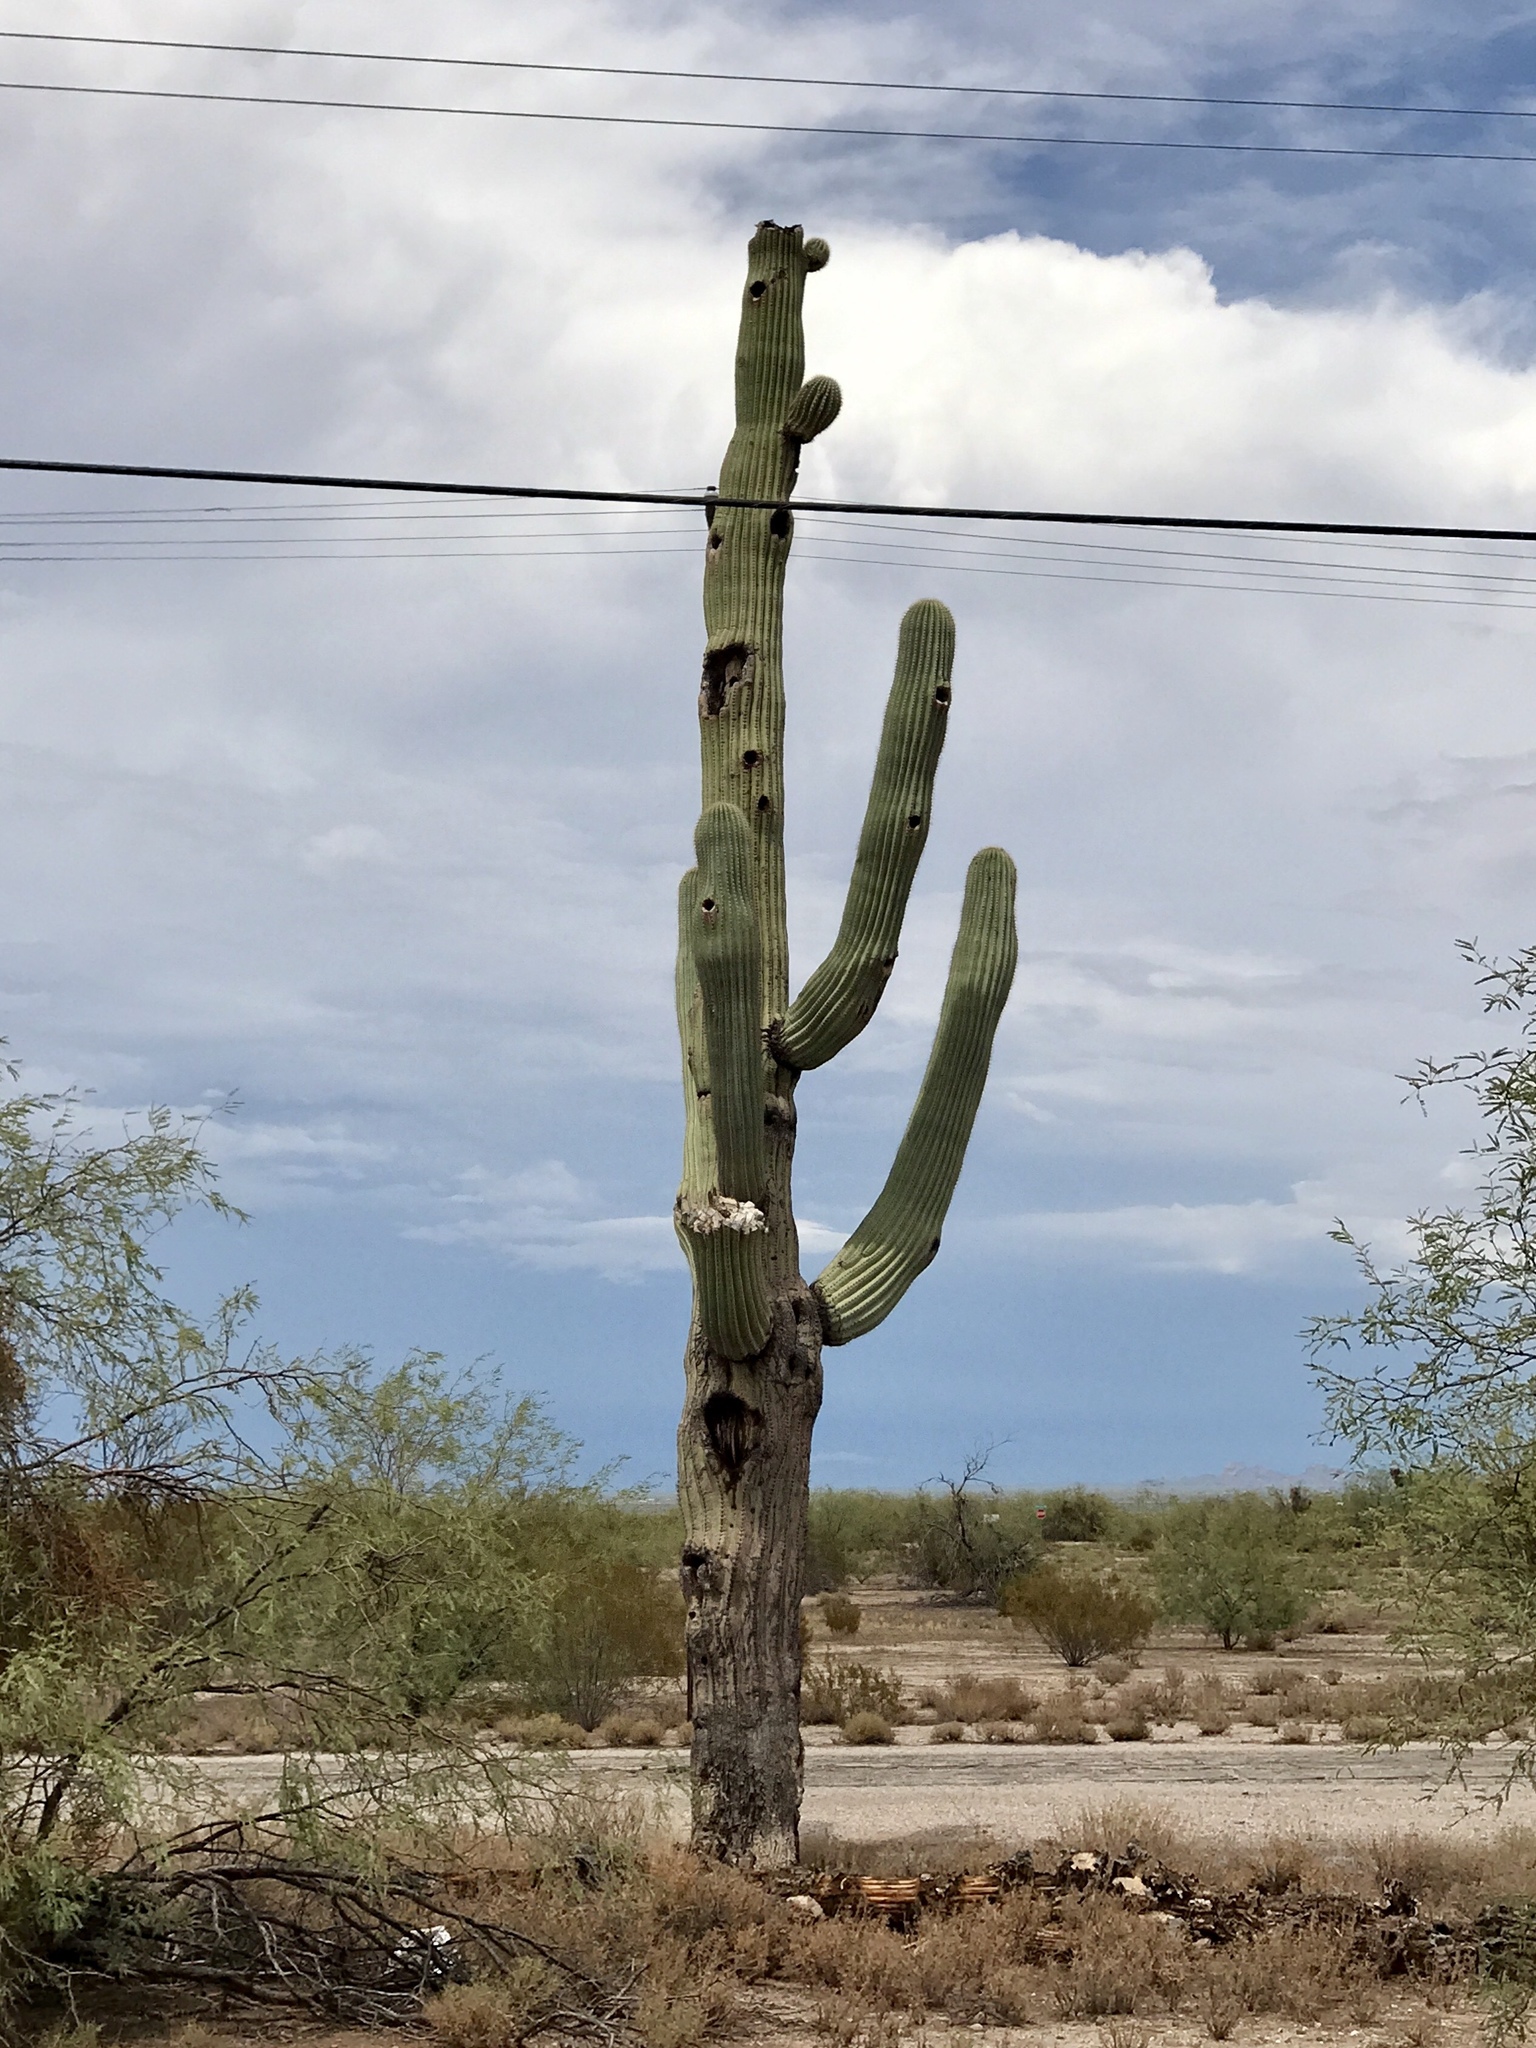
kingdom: Plantae
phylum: Tracheophyta
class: Magnoliopsida
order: Caryophyllales
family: Cactaceae
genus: Carnegiea
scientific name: Carnegiea gigantea
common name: Saguaro
